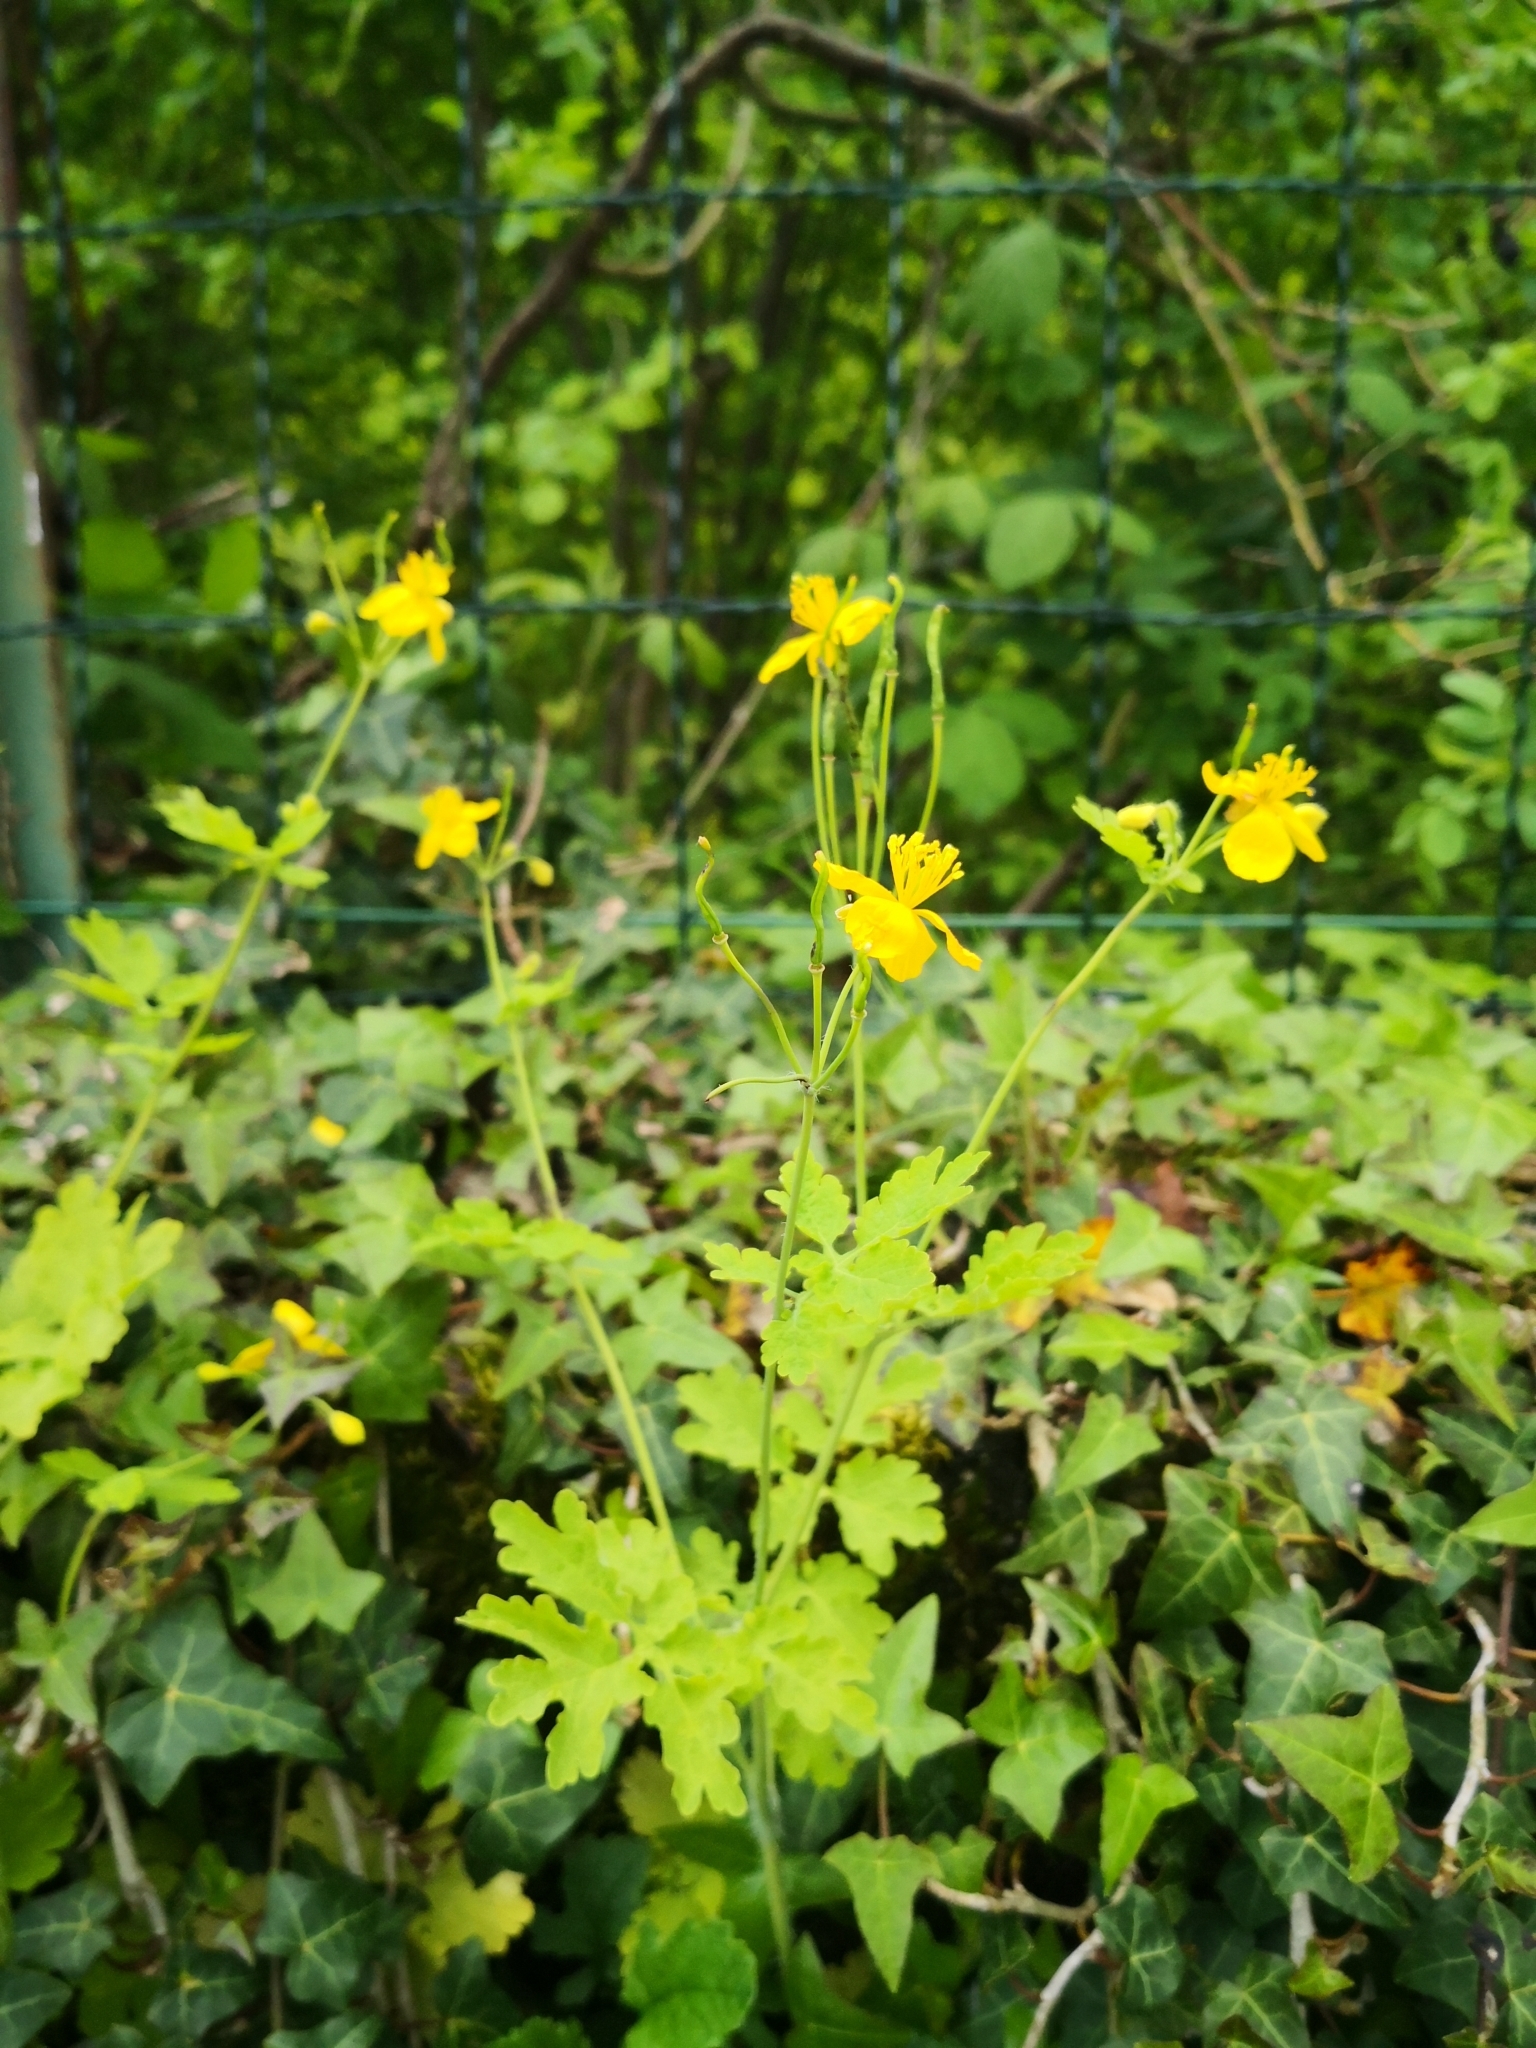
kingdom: Plantae
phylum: Tracheophyta
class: Magnoliopsida
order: Ranunculales
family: Papaveraceae
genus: Chelidonium
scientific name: Chelidonium majus
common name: Greater celandine
